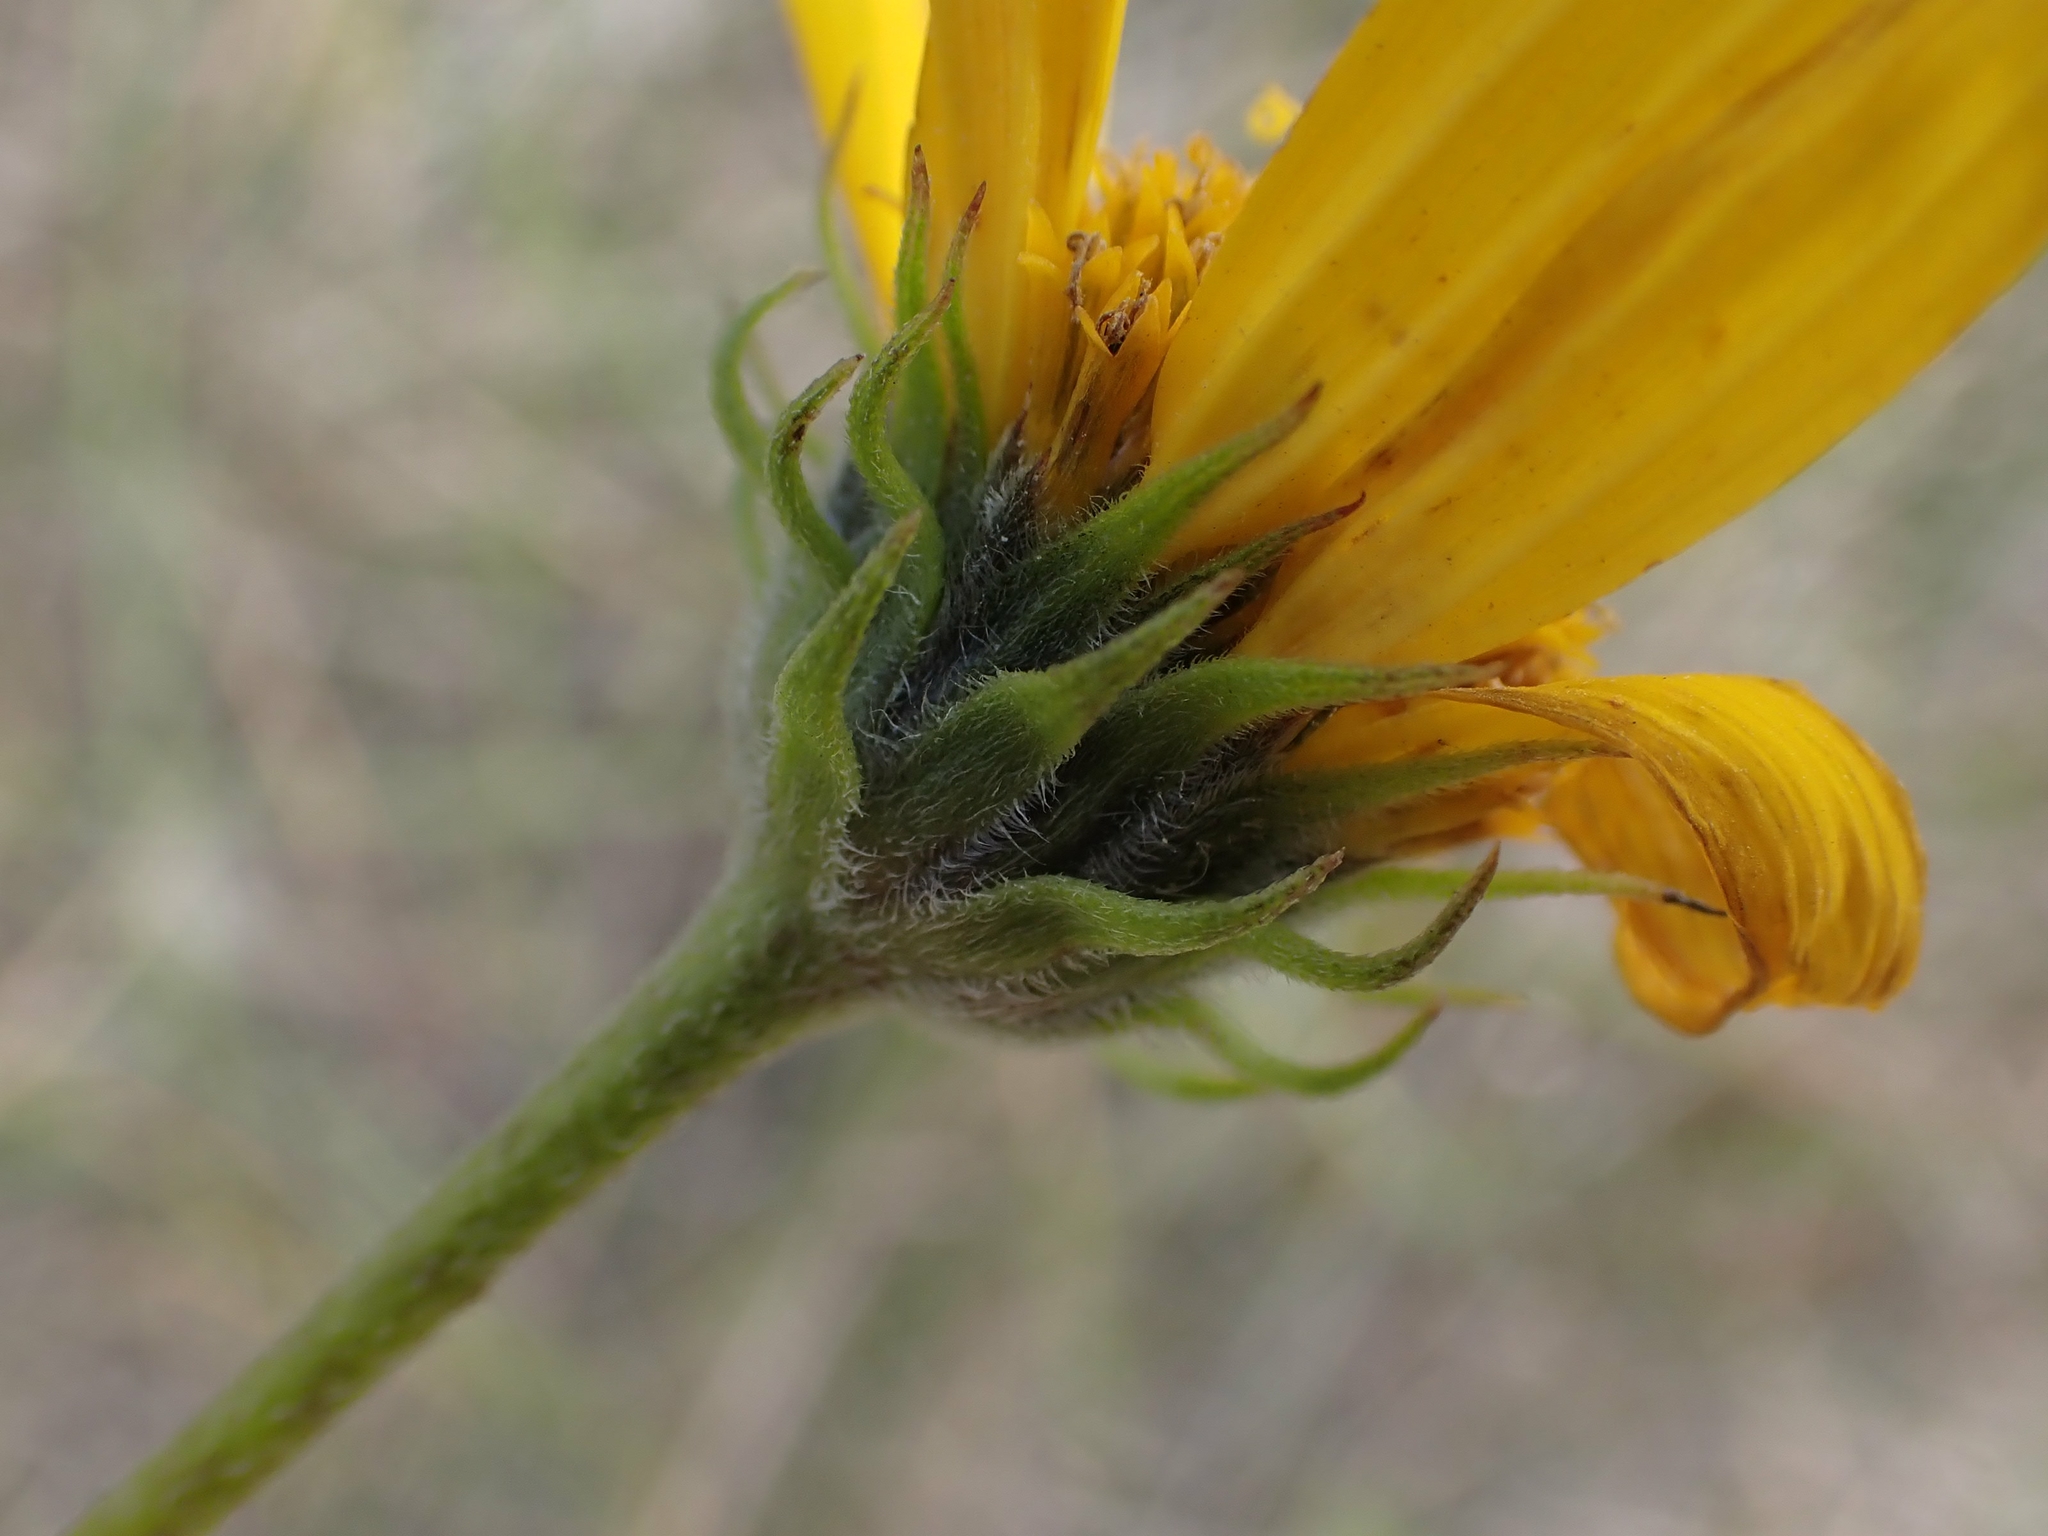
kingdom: Plantae
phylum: Tracheophyta
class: Magnoliopsida
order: Asterales
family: Asteraceae
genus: Helianthus
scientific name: Helianthus maximiliani
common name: Maximilian's sunflower
